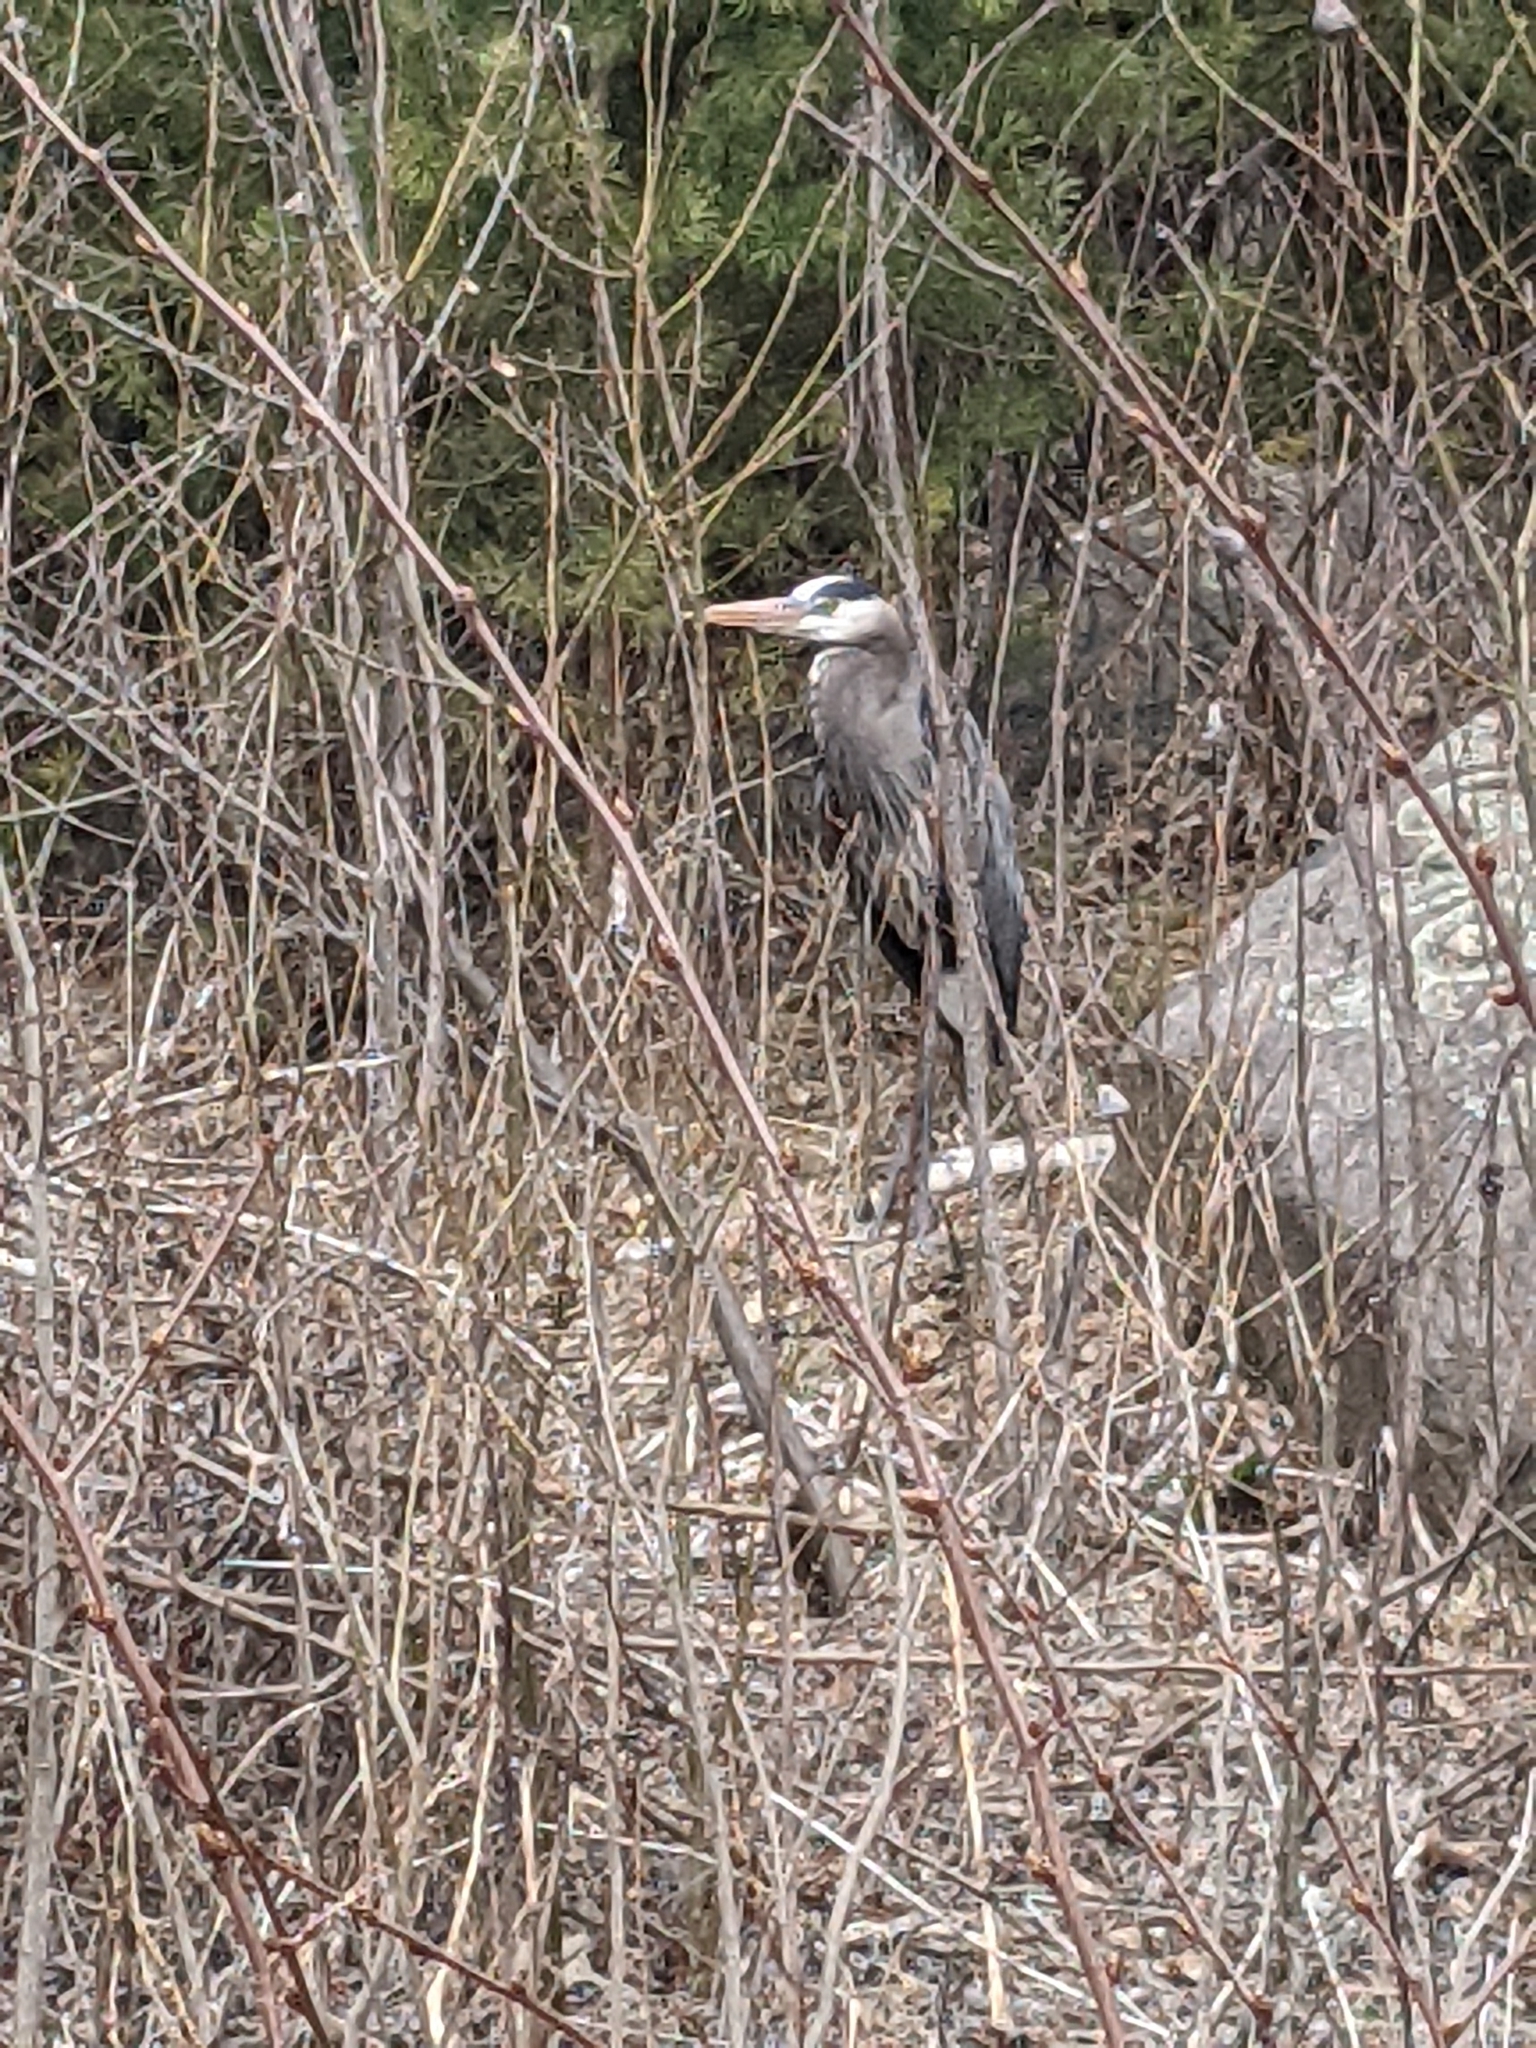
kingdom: Animalia
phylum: Chordata
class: Aves
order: Pelecaniformes
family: Ardeidae
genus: Ardea
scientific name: Ardea herodias
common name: Great blue heron
